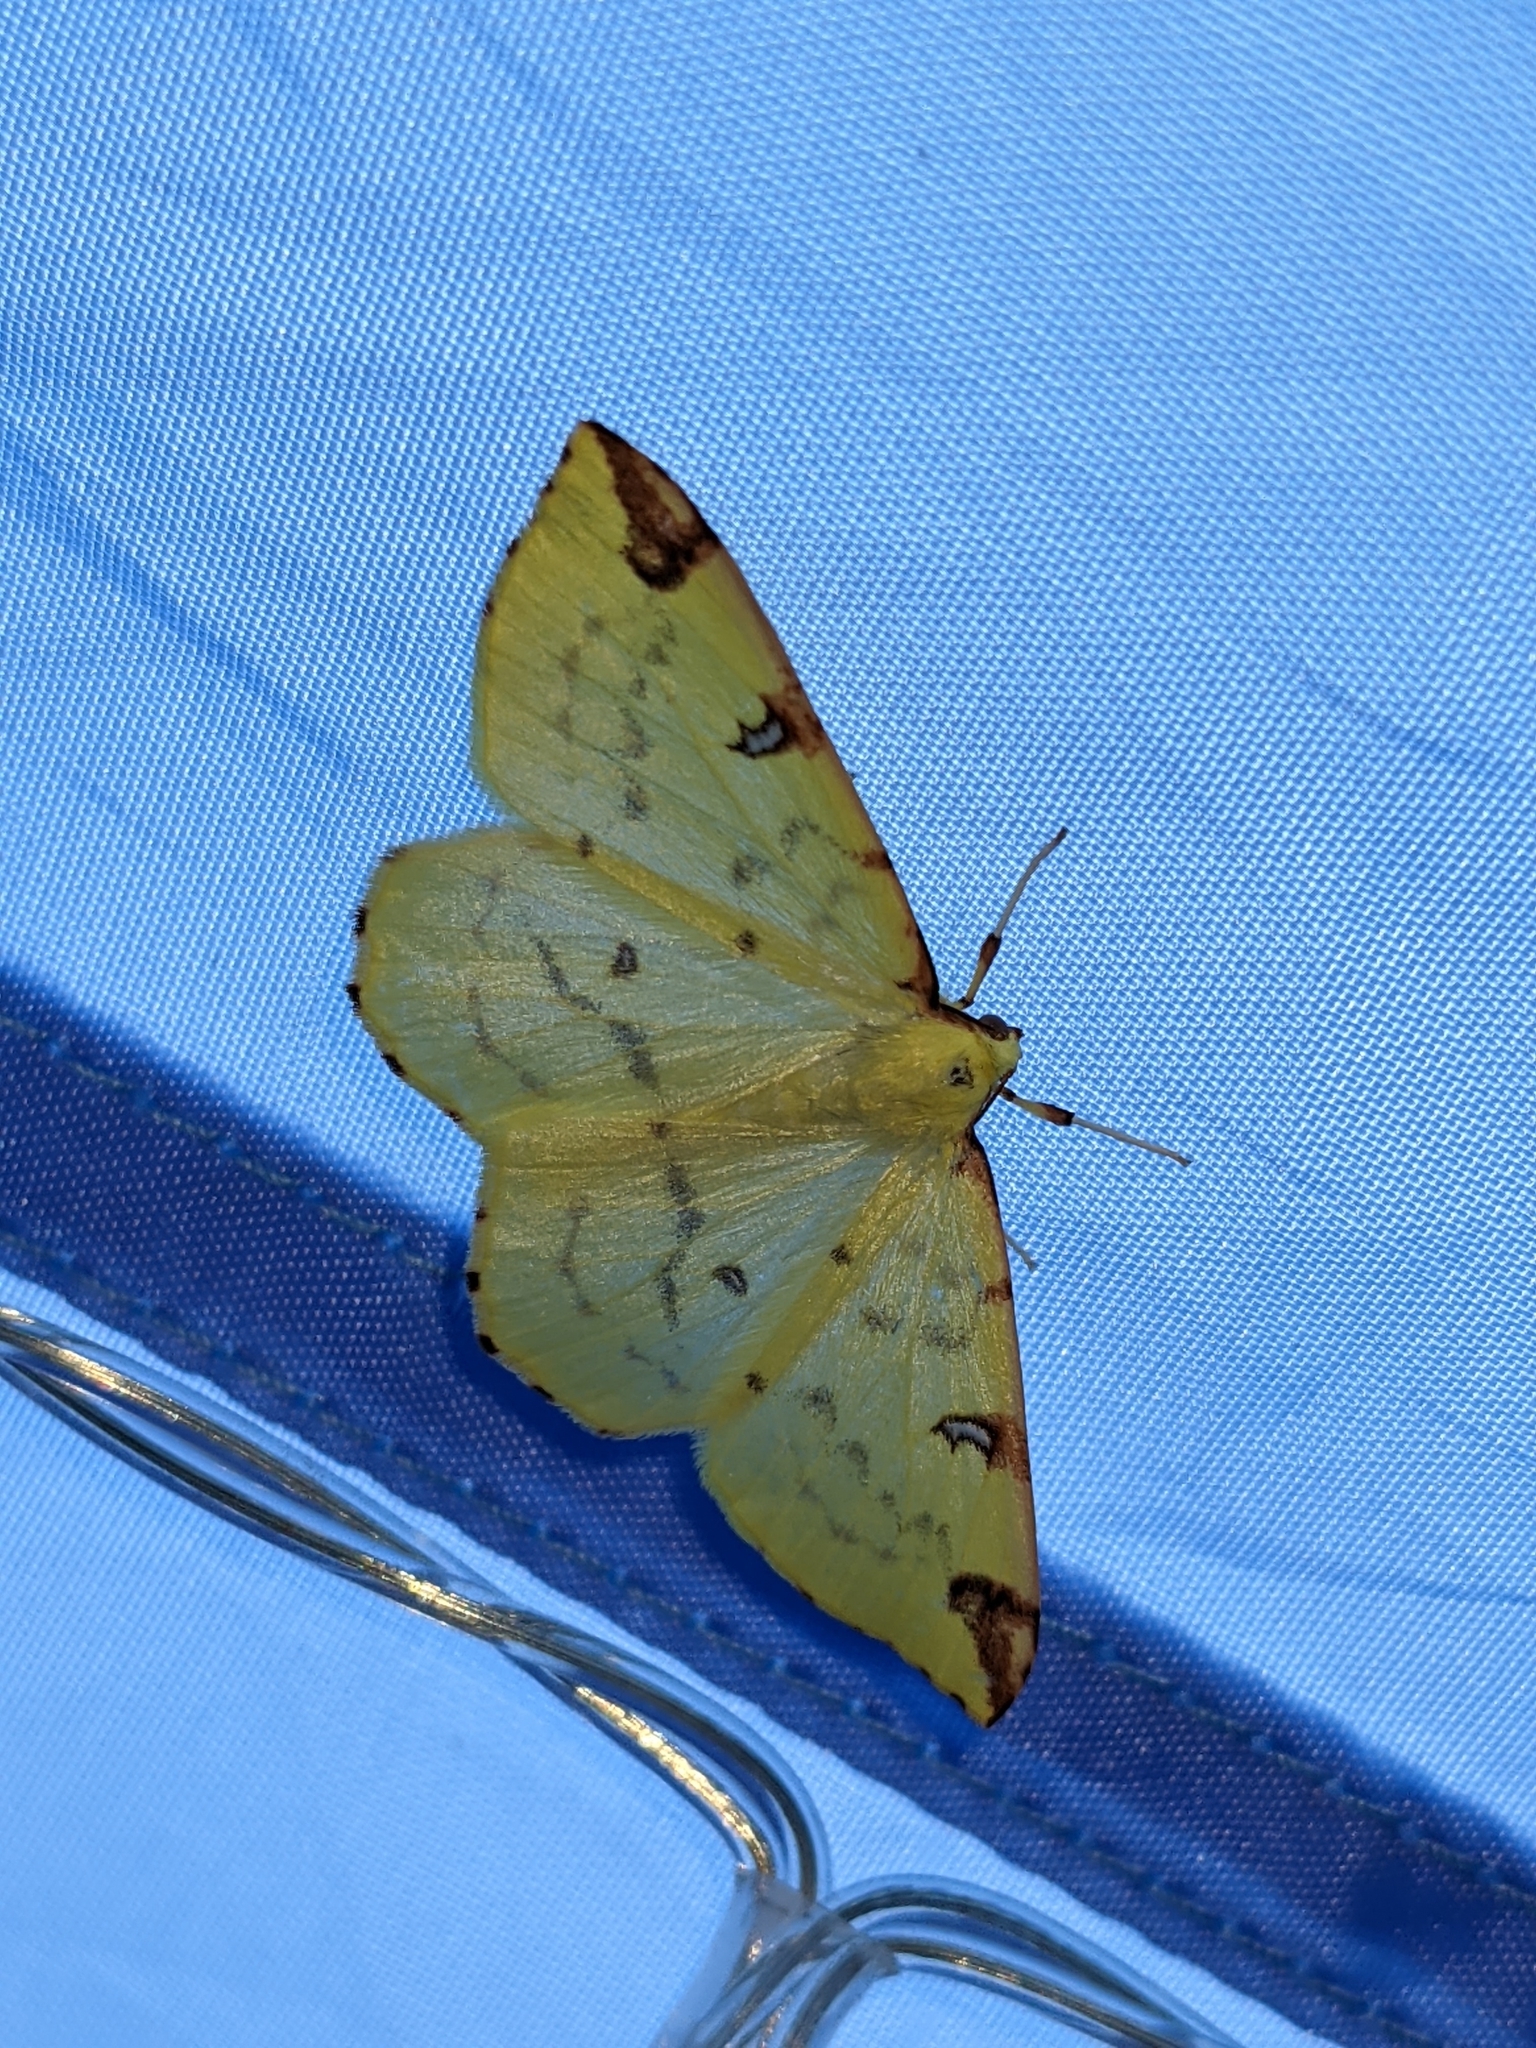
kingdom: Animalia
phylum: Arthropoda
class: Insecta
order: Lepidoptera
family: Geometridae
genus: Opisthograptis
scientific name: Opisthograptis luteolata
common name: Brimstone moth
